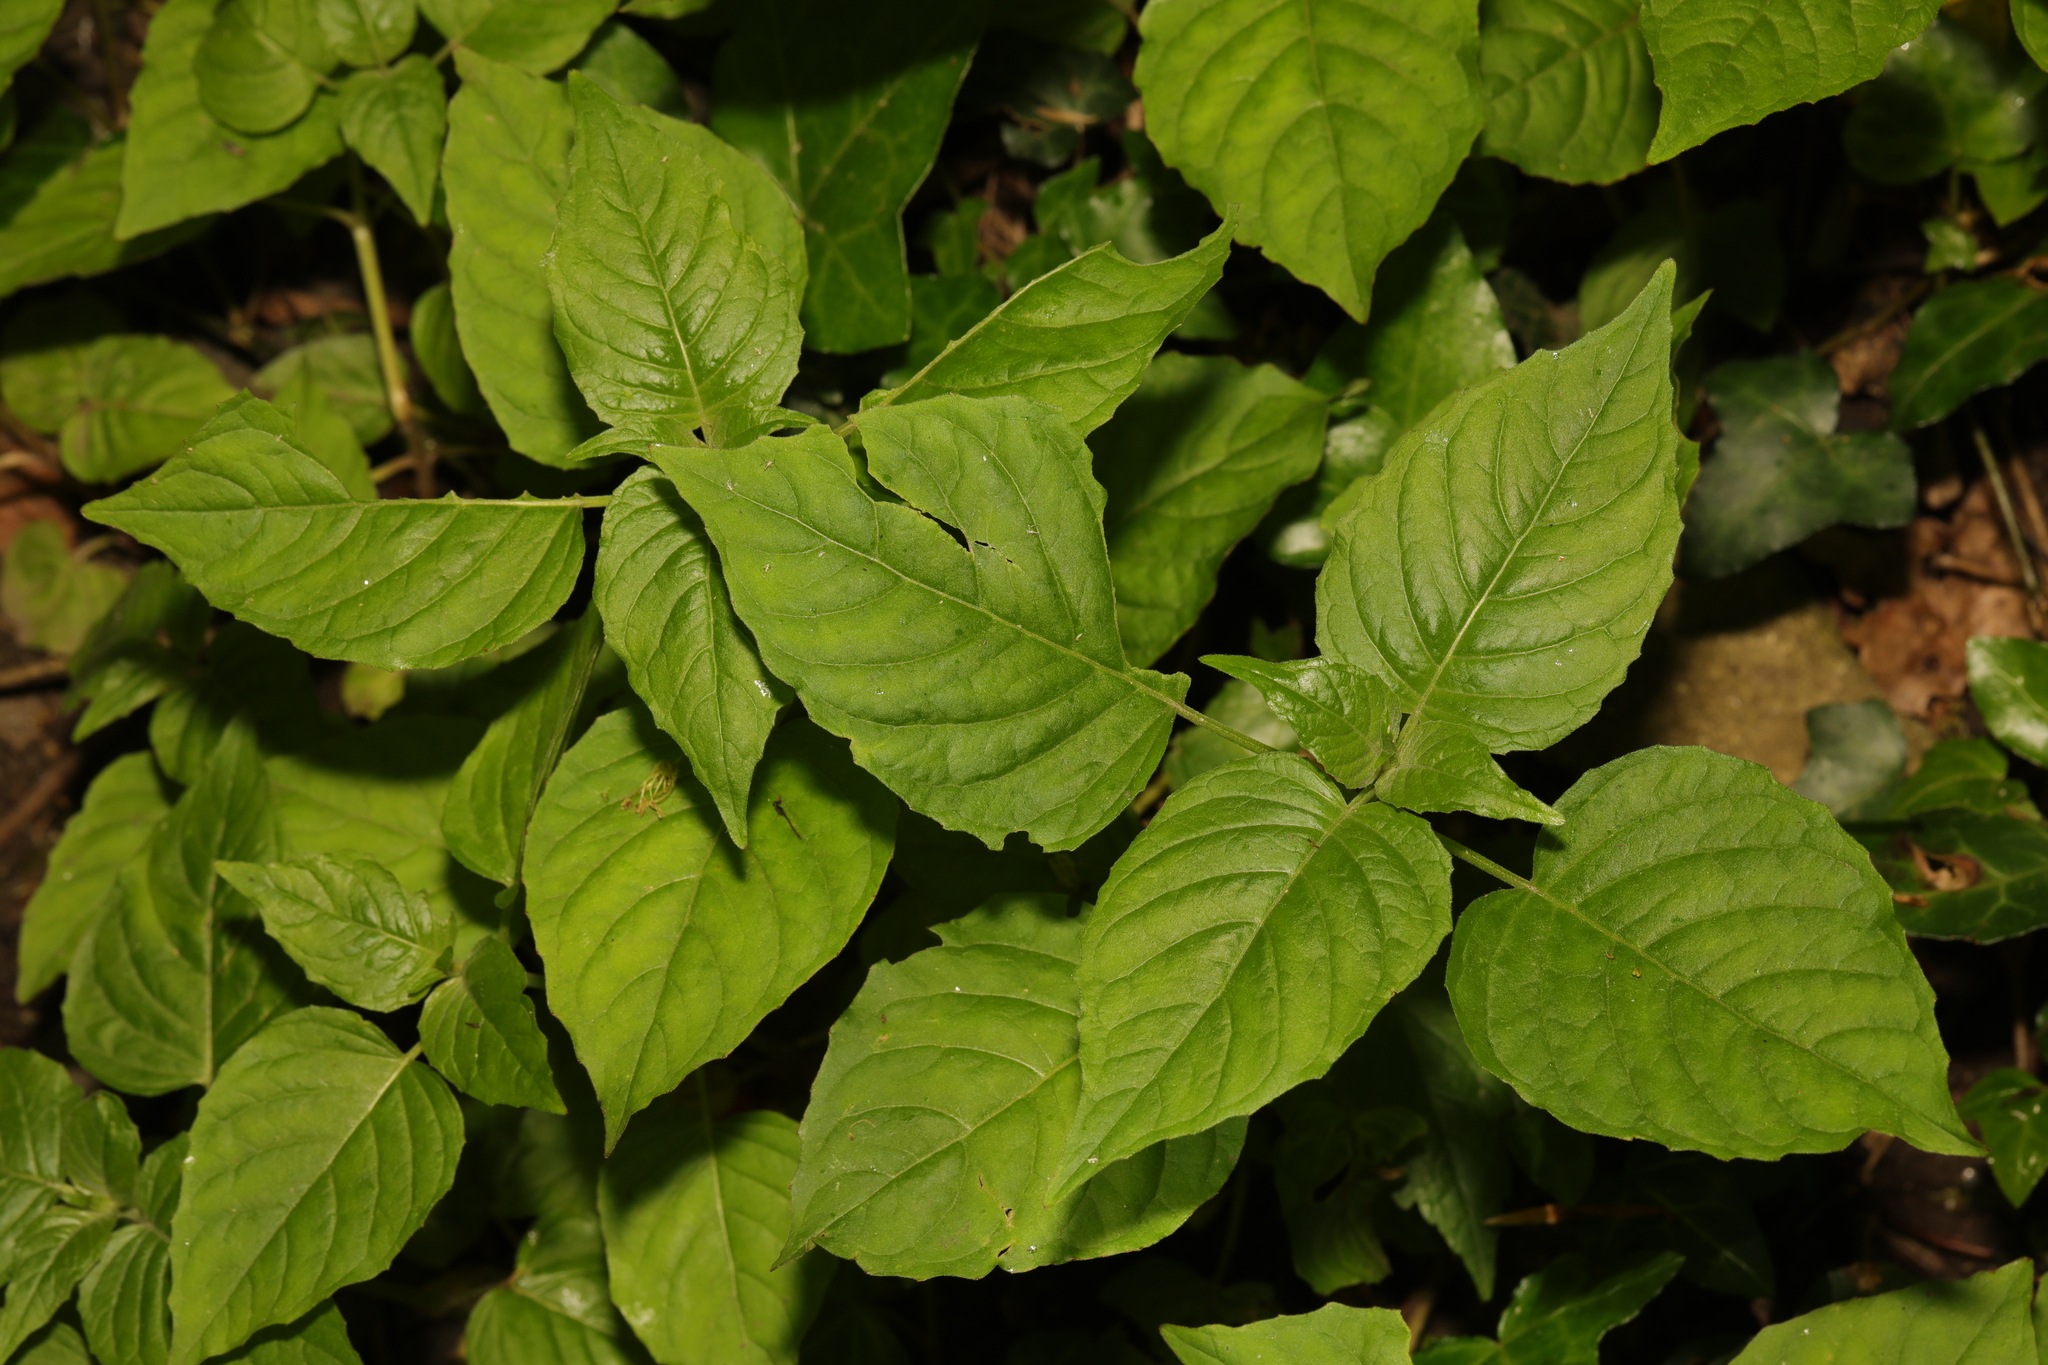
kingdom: Plantae
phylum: Tracheophyta
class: Magnoliopsida
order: Myrtales
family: Onagraceae
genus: Circaea
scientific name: Circaea lutetiana
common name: Enchanter's-nightshade
